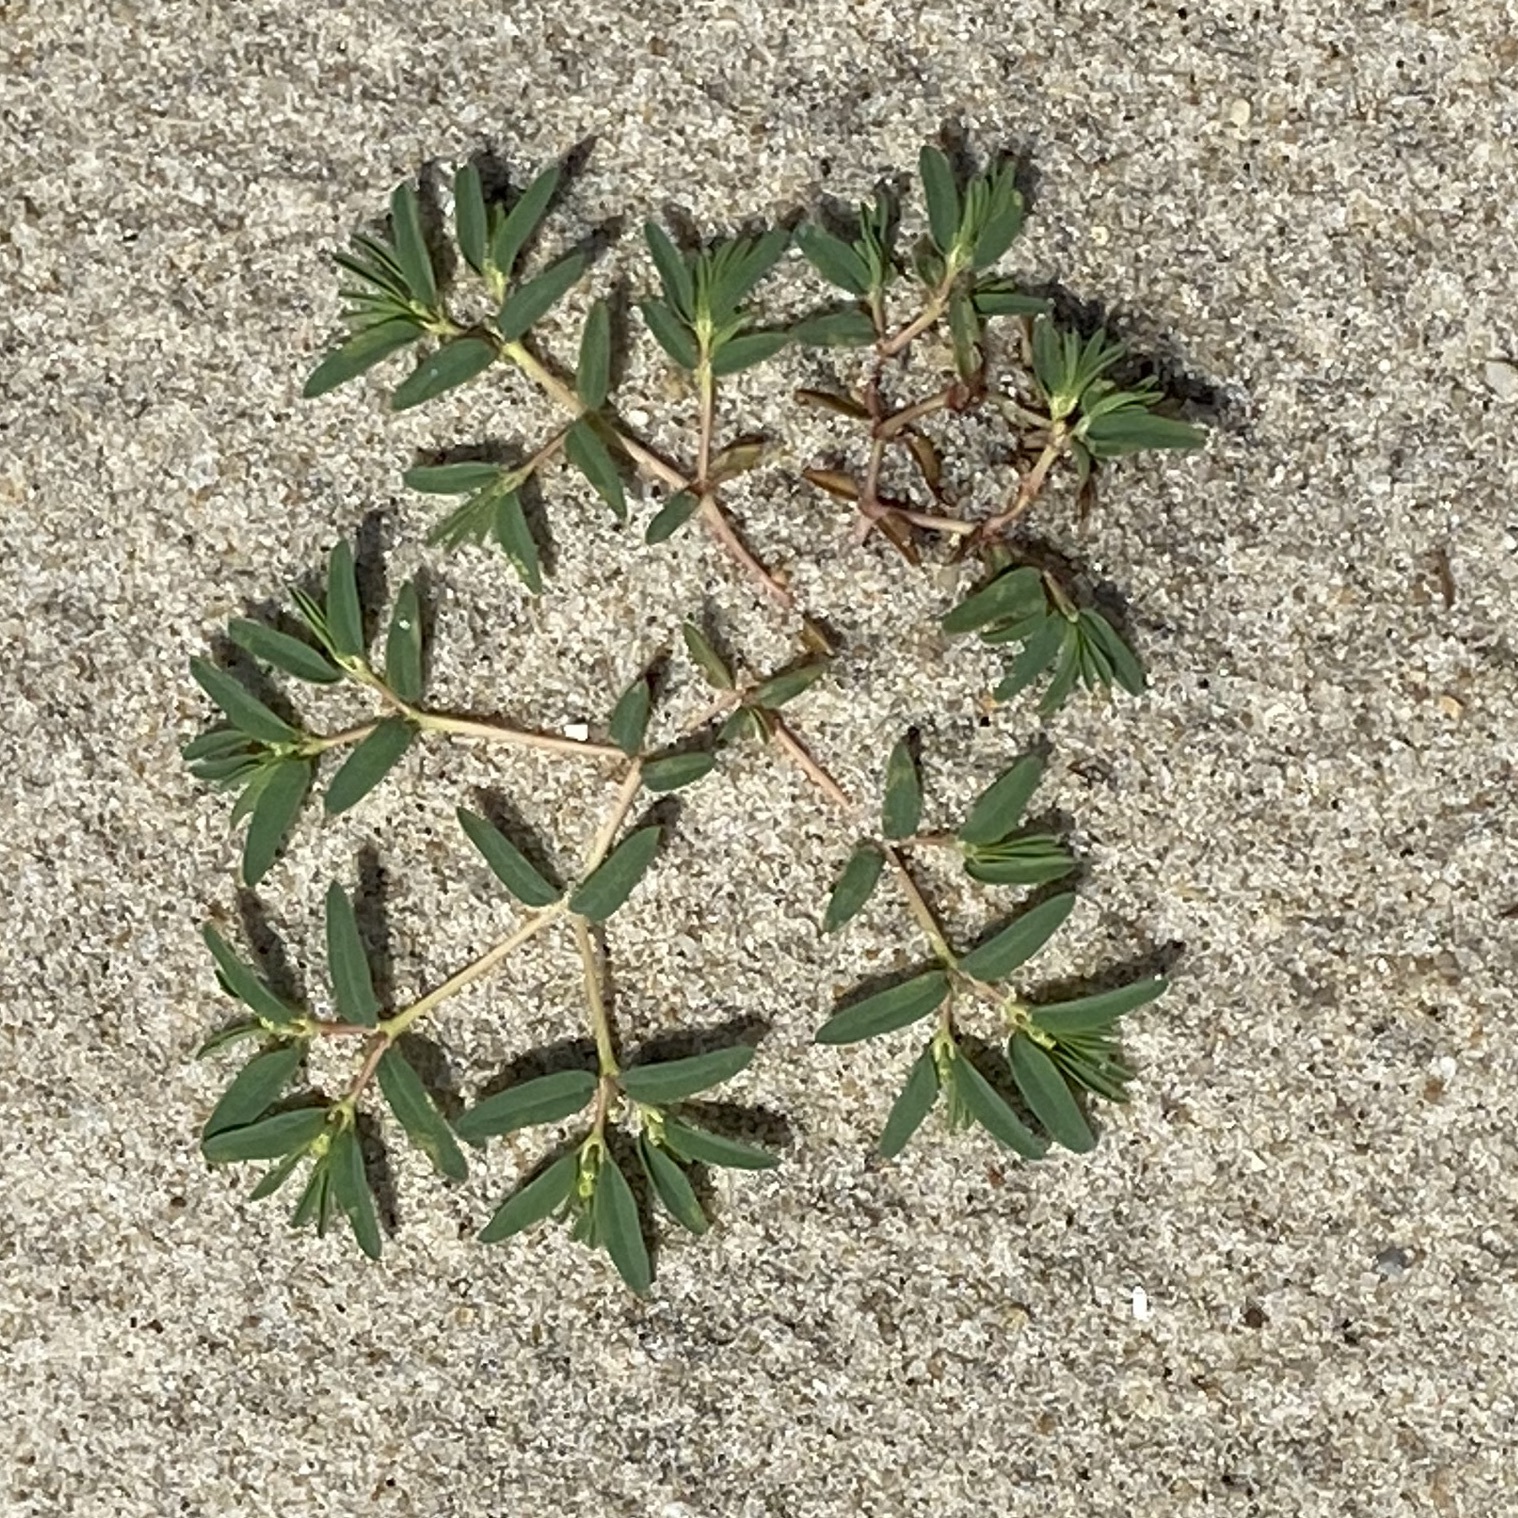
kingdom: Plantae
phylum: Tracheophyta
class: Magnoliopsida
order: Malpighiales
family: Euphorbiaceae
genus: Euphorbia
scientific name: Euphorbia polygonifolia
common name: Knotweed spurge
